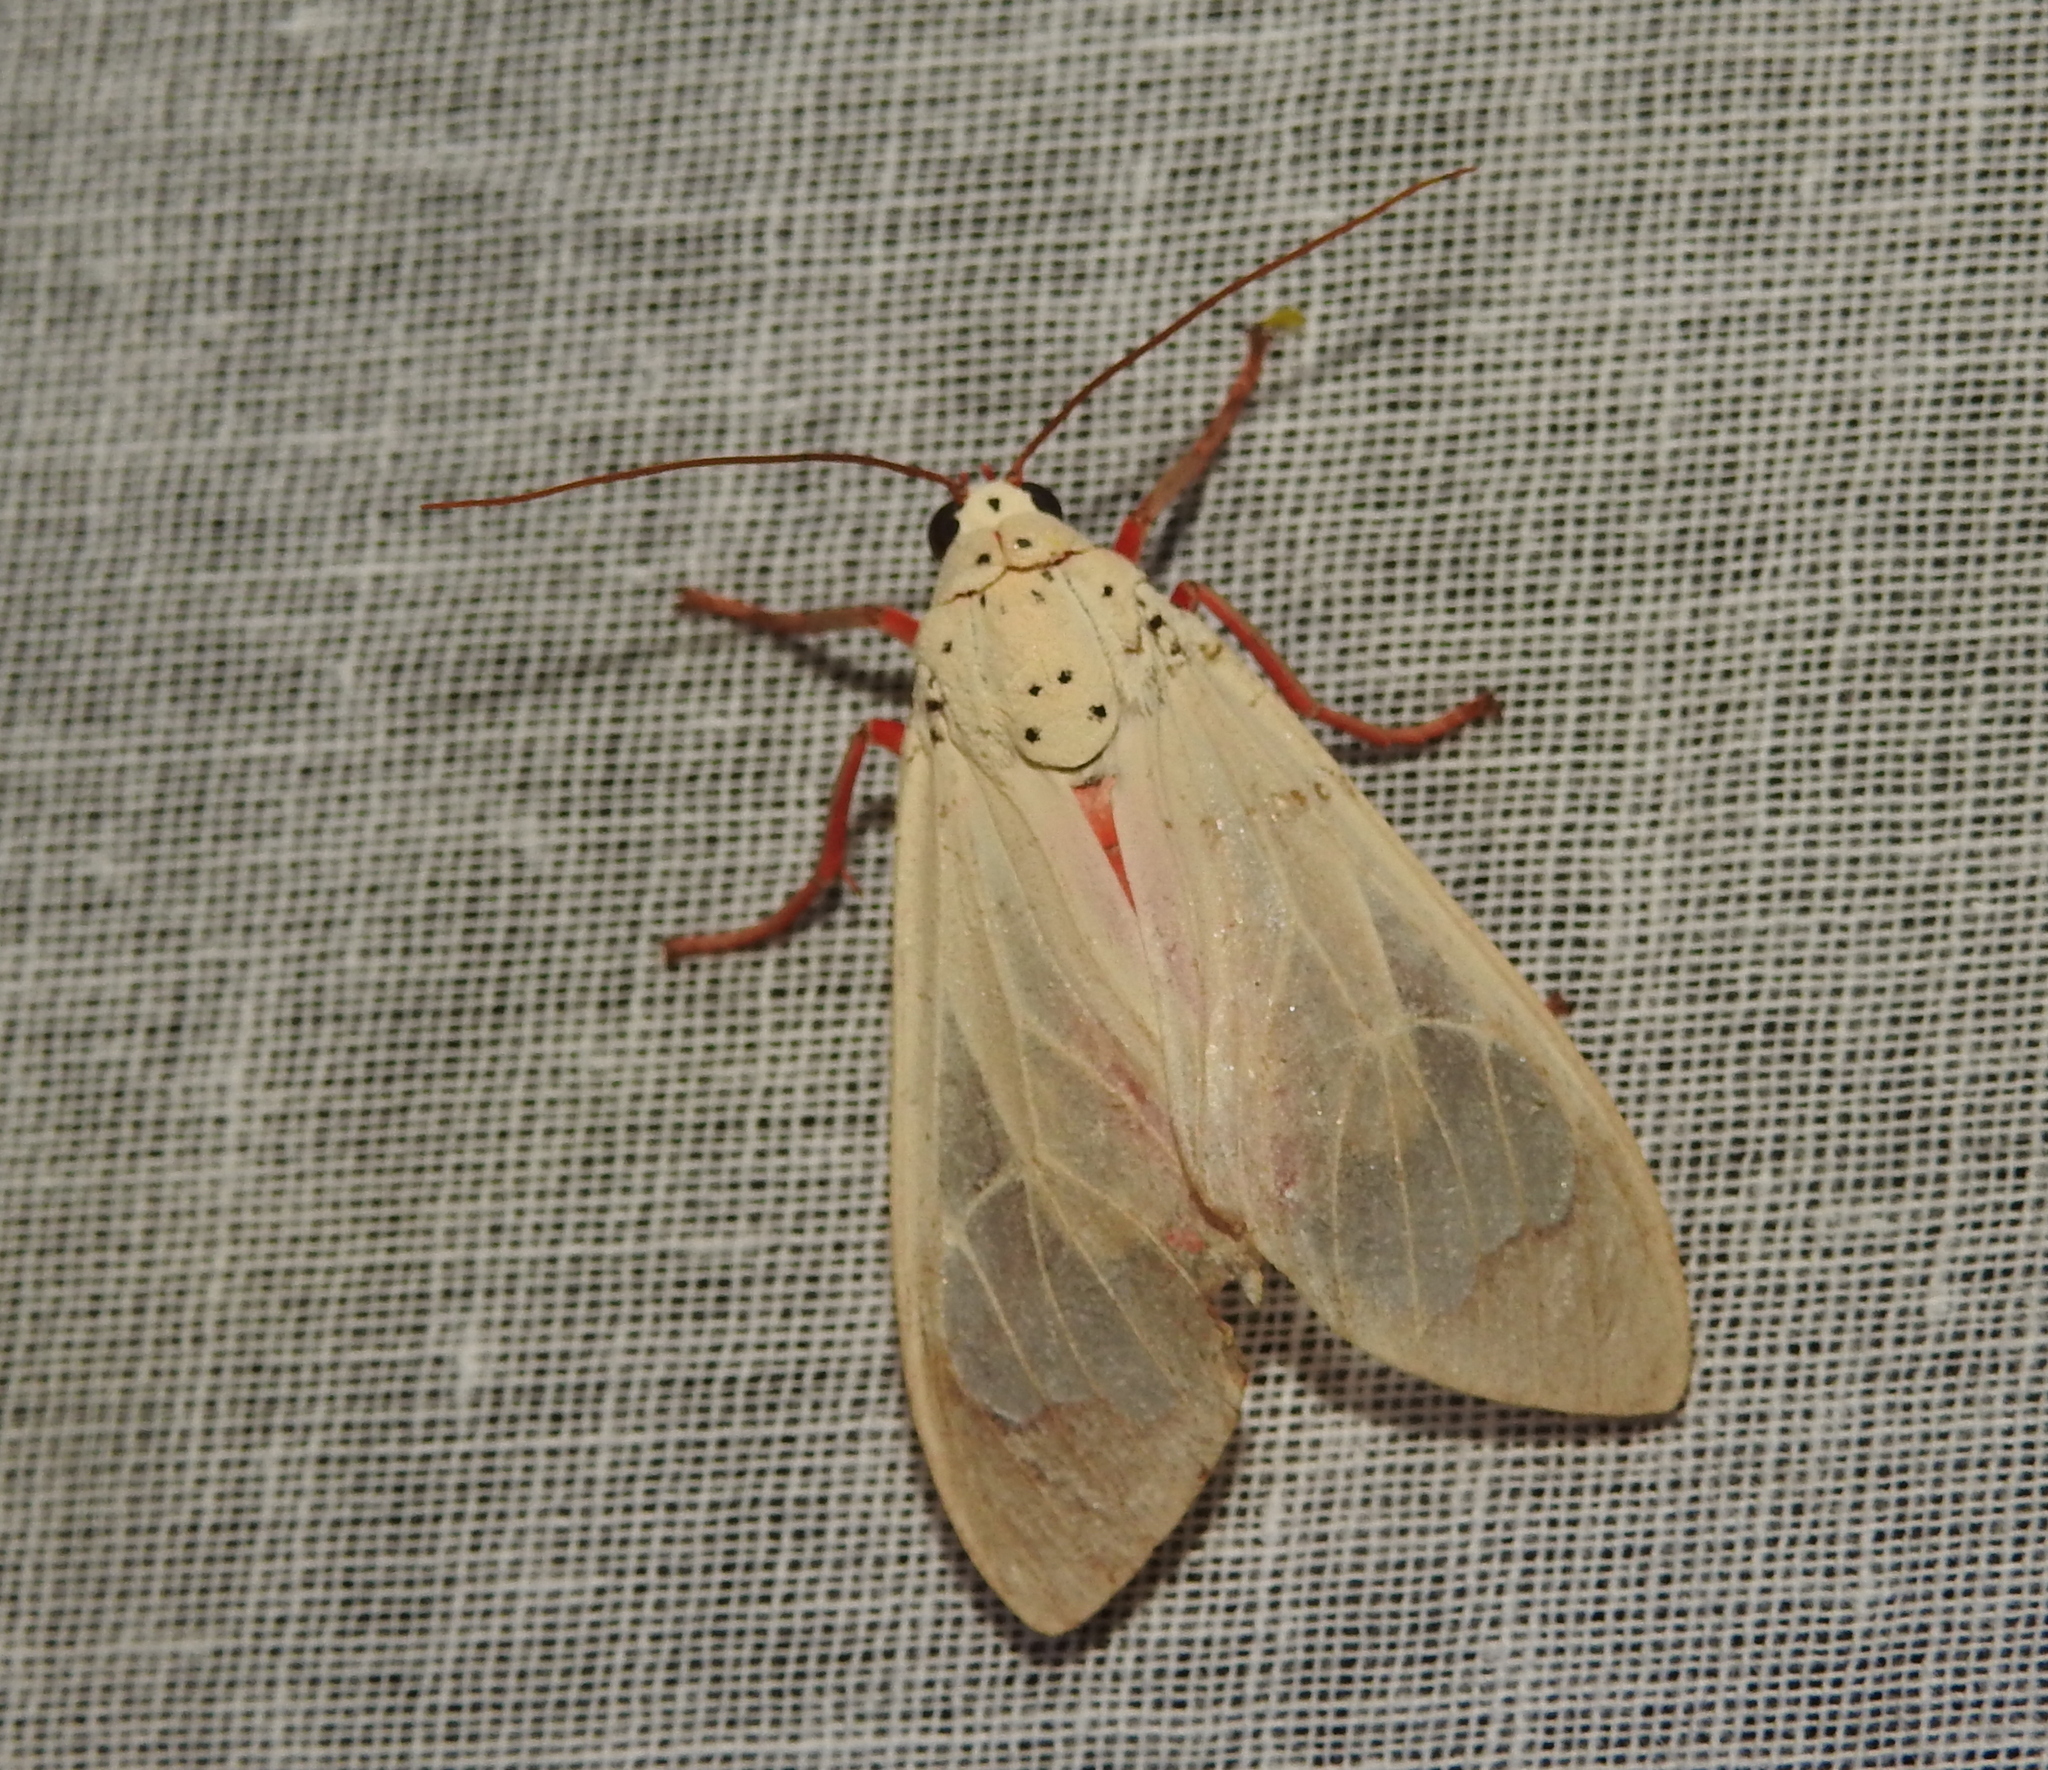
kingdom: Animalia
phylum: Arthropoda
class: Insecta
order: Lepidoptera
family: Erebidae
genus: Amerila
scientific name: Amerila eugenia
